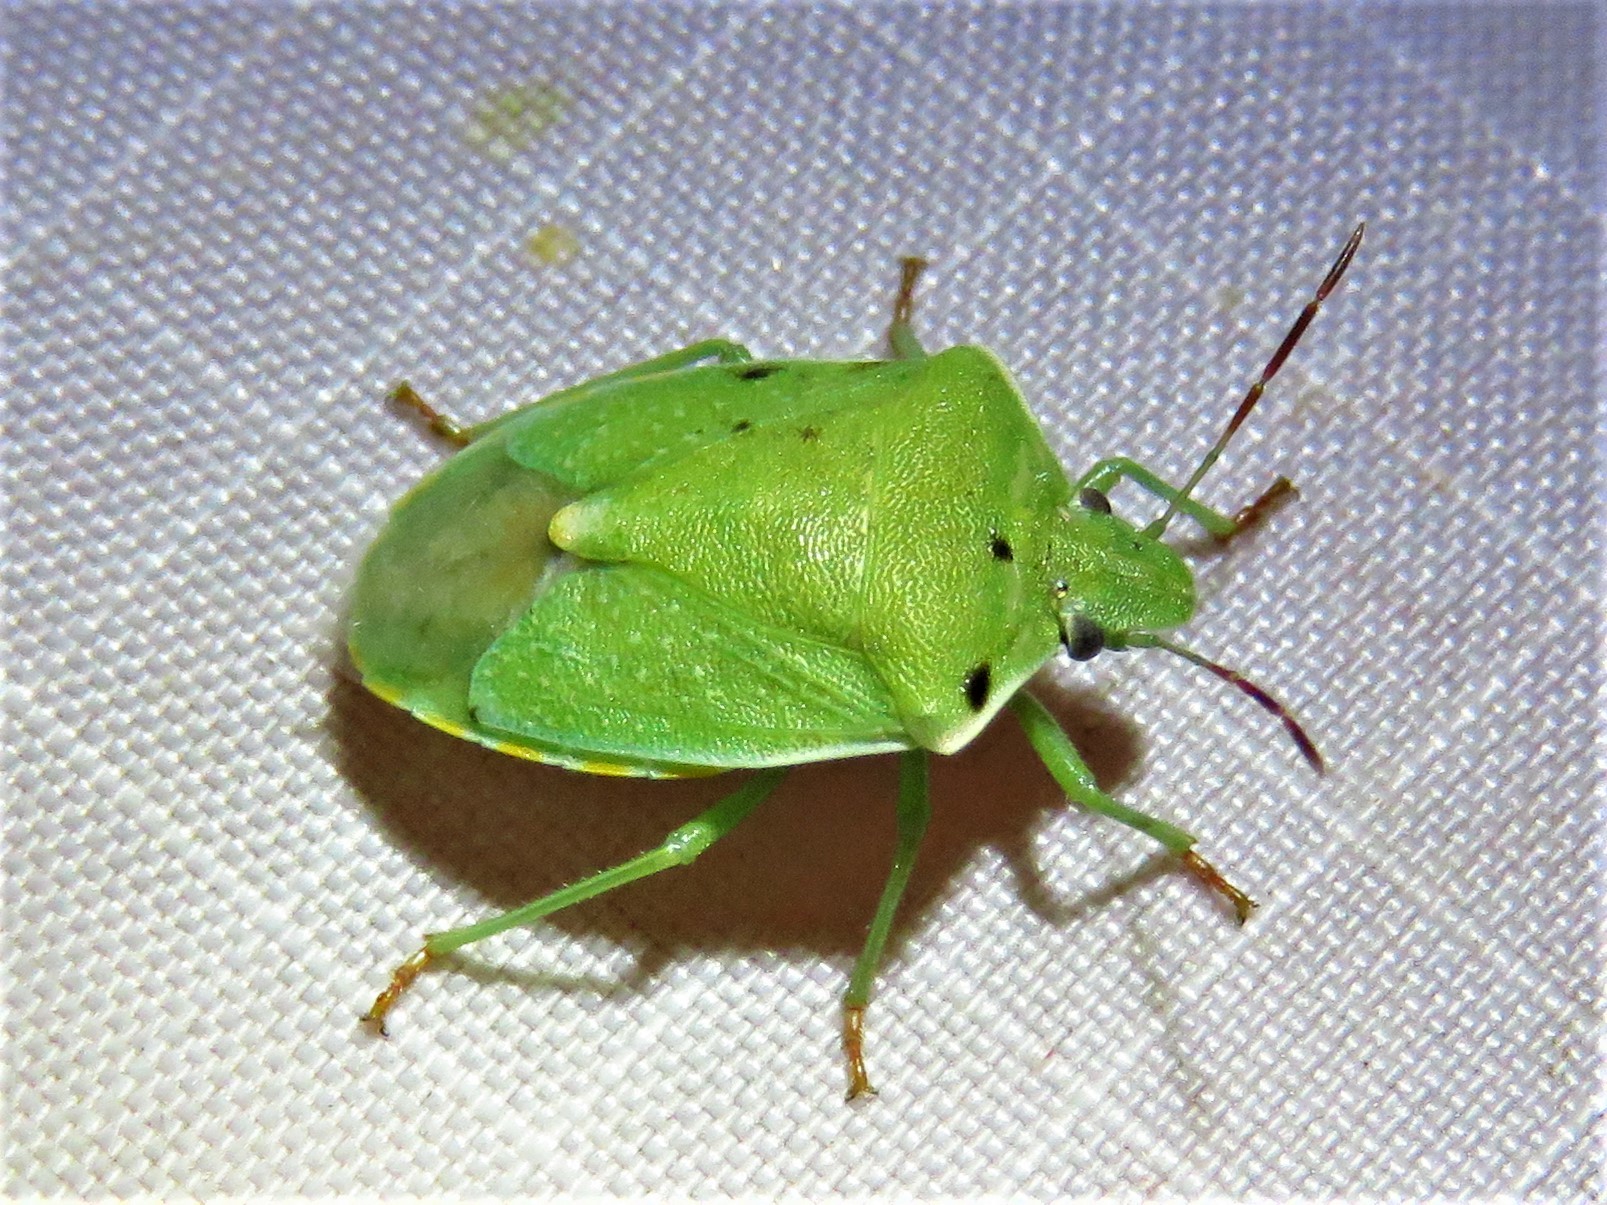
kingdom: Animalia
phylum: Arthropoda
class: Insecta
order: Hemiptera
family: Pentatomidae
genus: Thyanta
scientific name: Thyanta custator
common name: Stink bug
